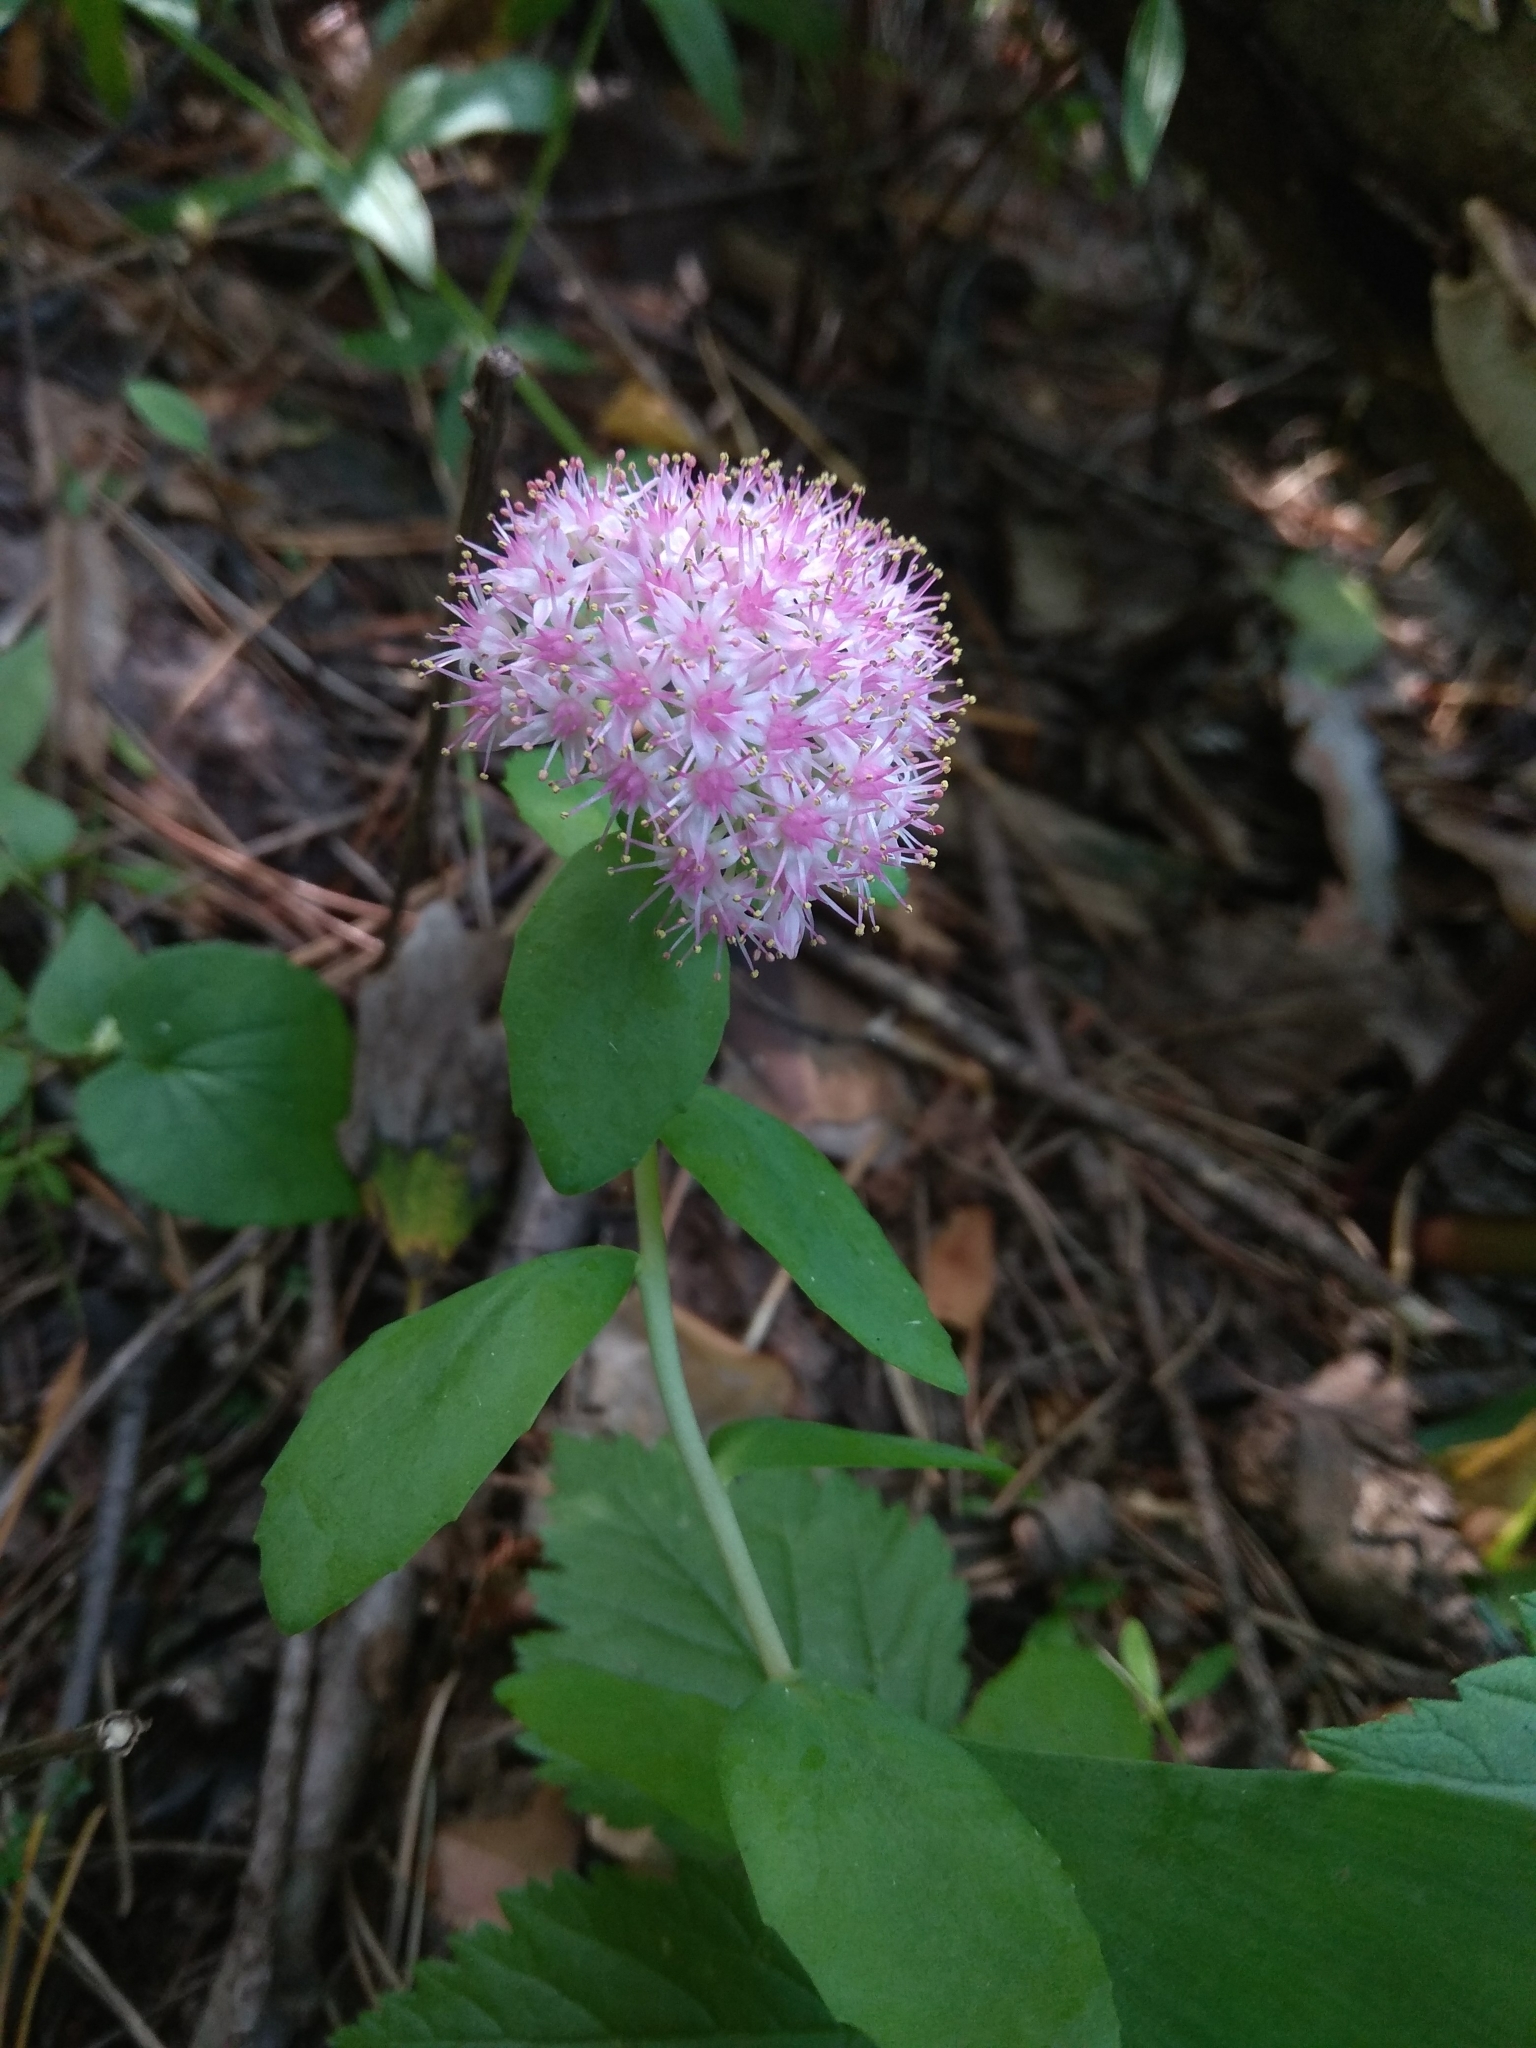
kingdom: Plantae
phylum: Tracheophyta
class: Magnoliopsida
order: Saxifragales
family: Crassulaceae
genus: Hylotelephium
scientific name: Hylotelephium telephium
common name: Live-forever
